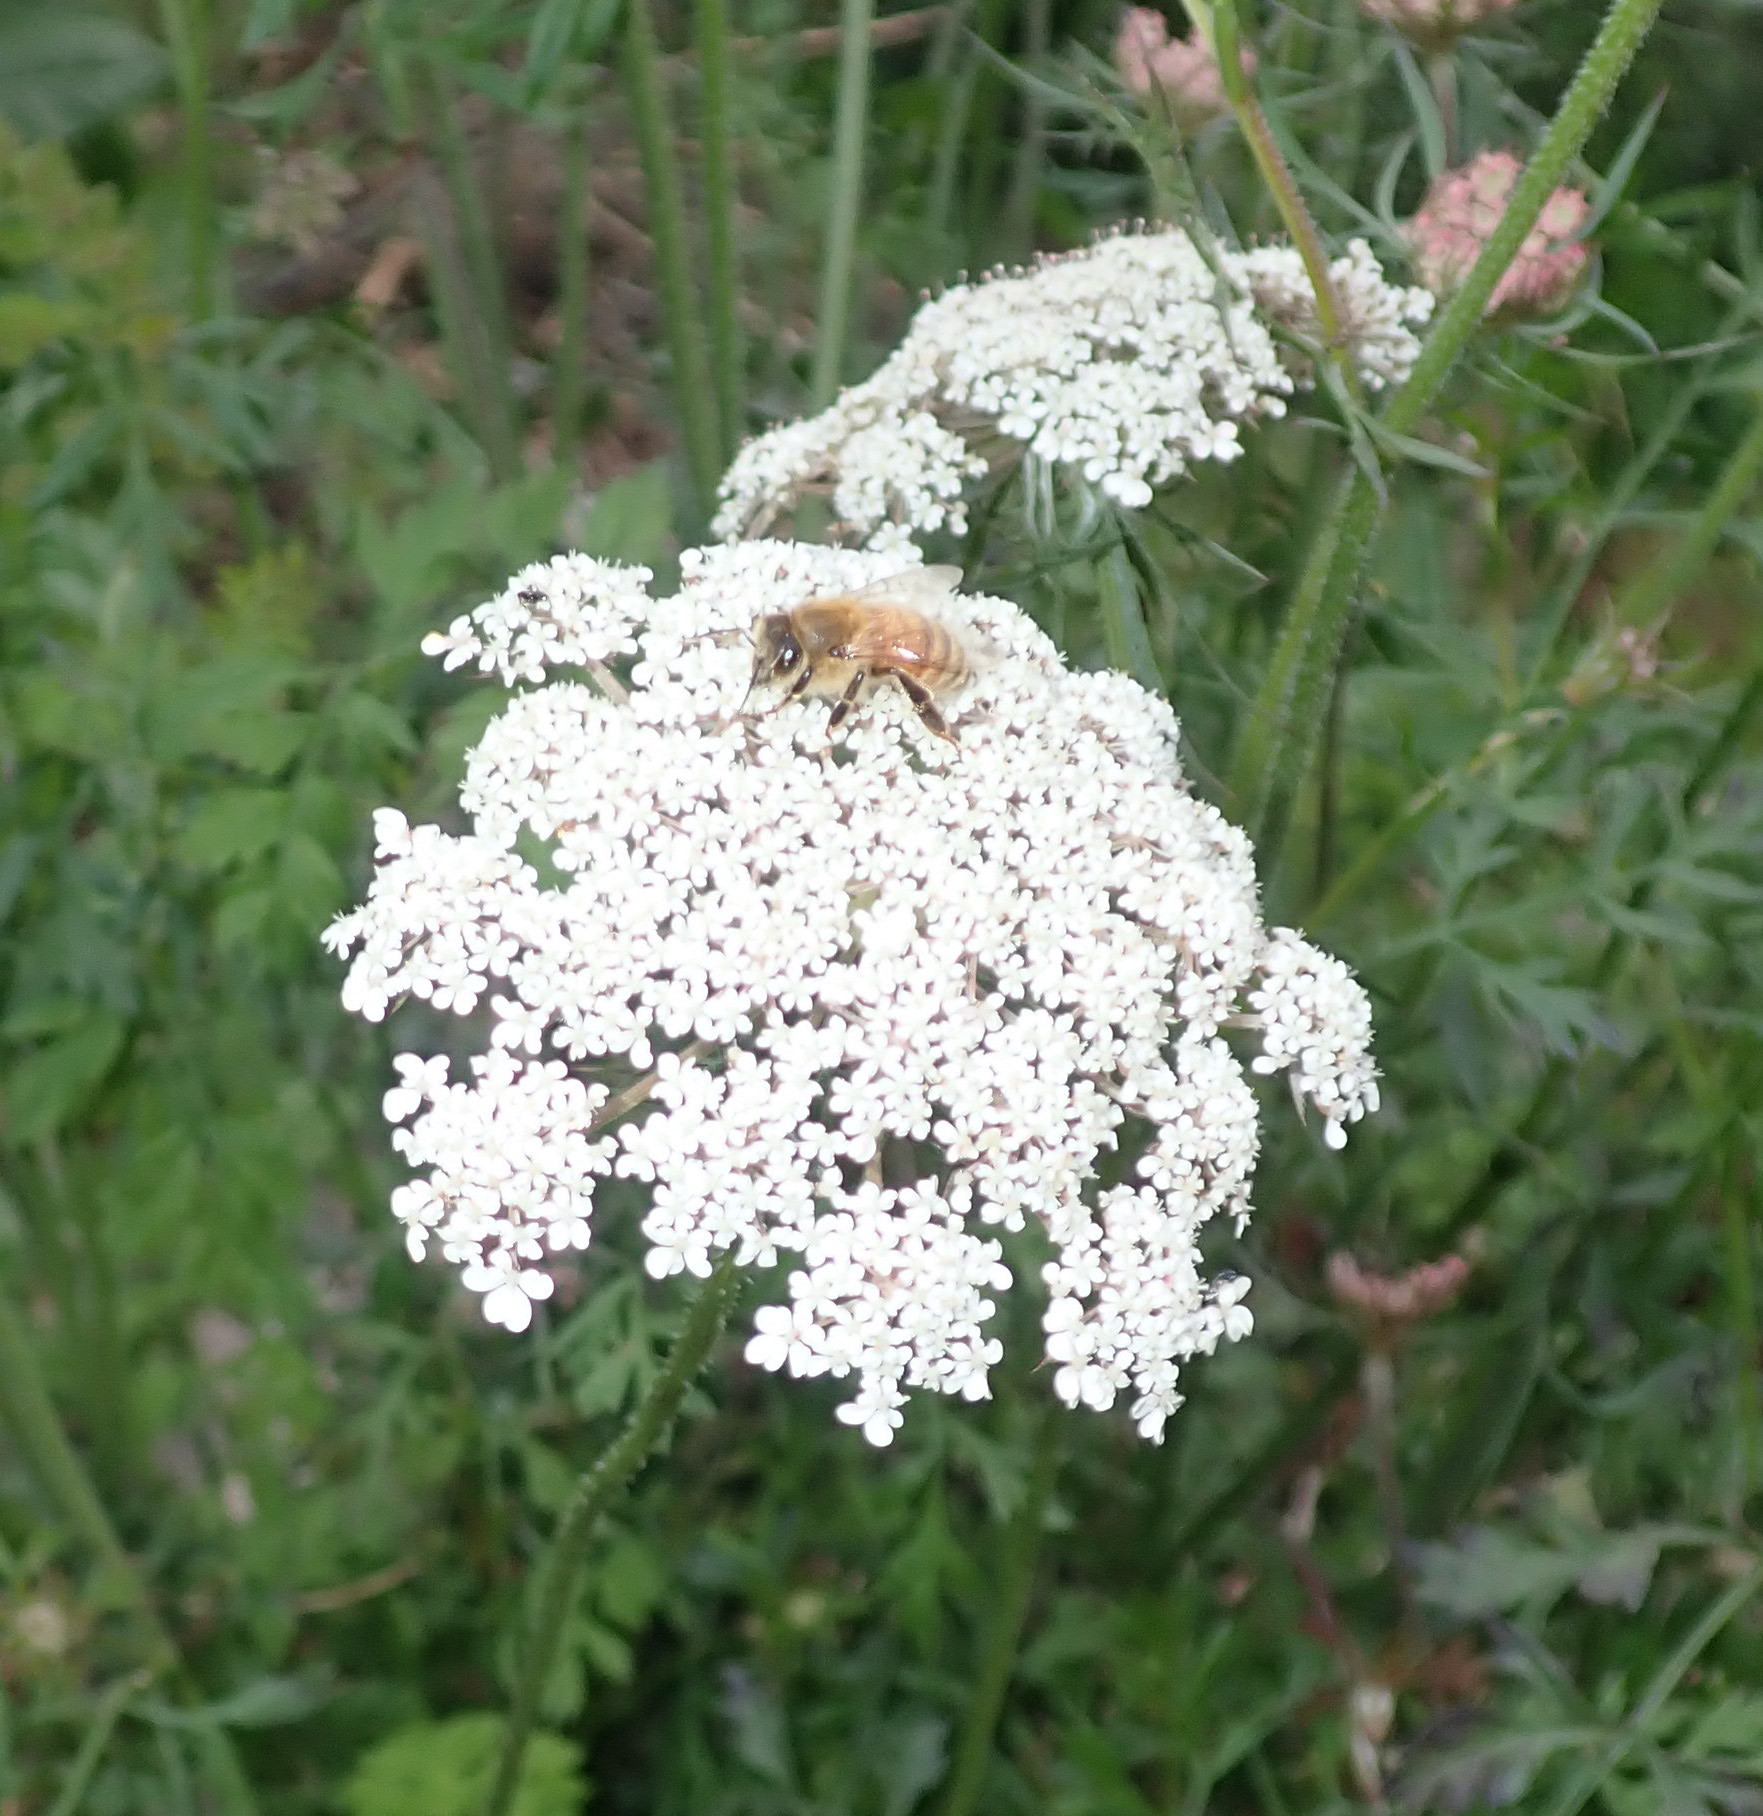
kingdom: Animalia
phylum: Arthropoda
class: Insecta
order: Hymenoptera
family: Apidae
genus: Apis
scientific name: Apis mellifera
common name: Honey bee
